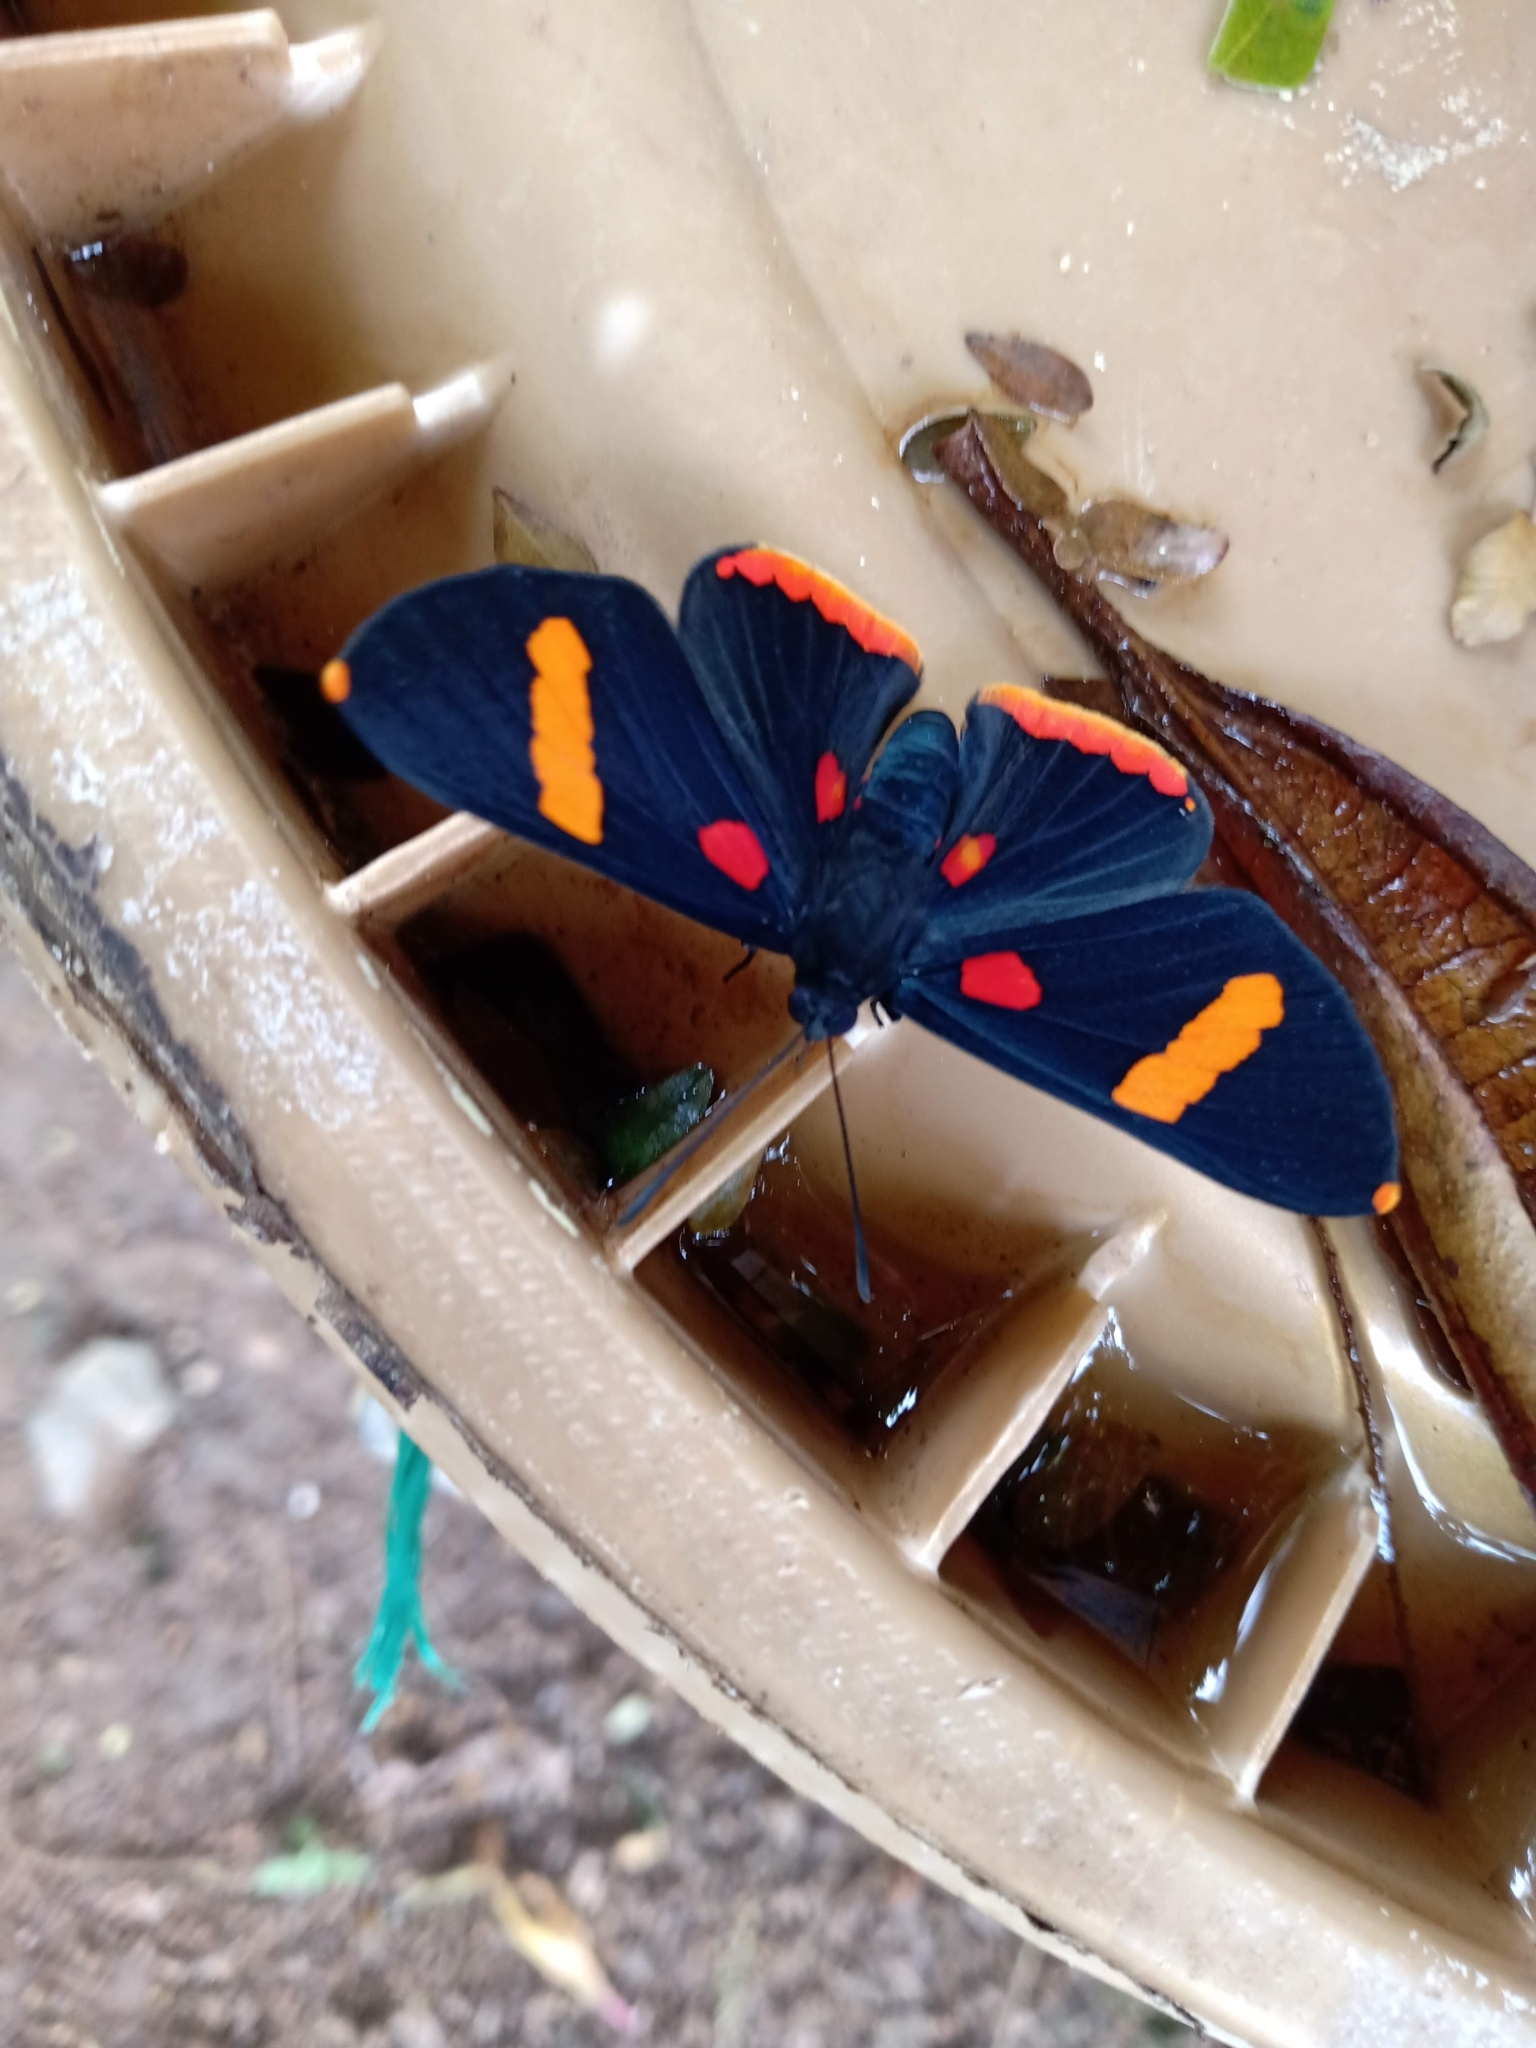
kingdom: Animalia
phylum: Arthropoda
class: Insecta
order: Lepidoptera
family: Lycaenidae
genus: Melanis
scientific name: Melanis electron
